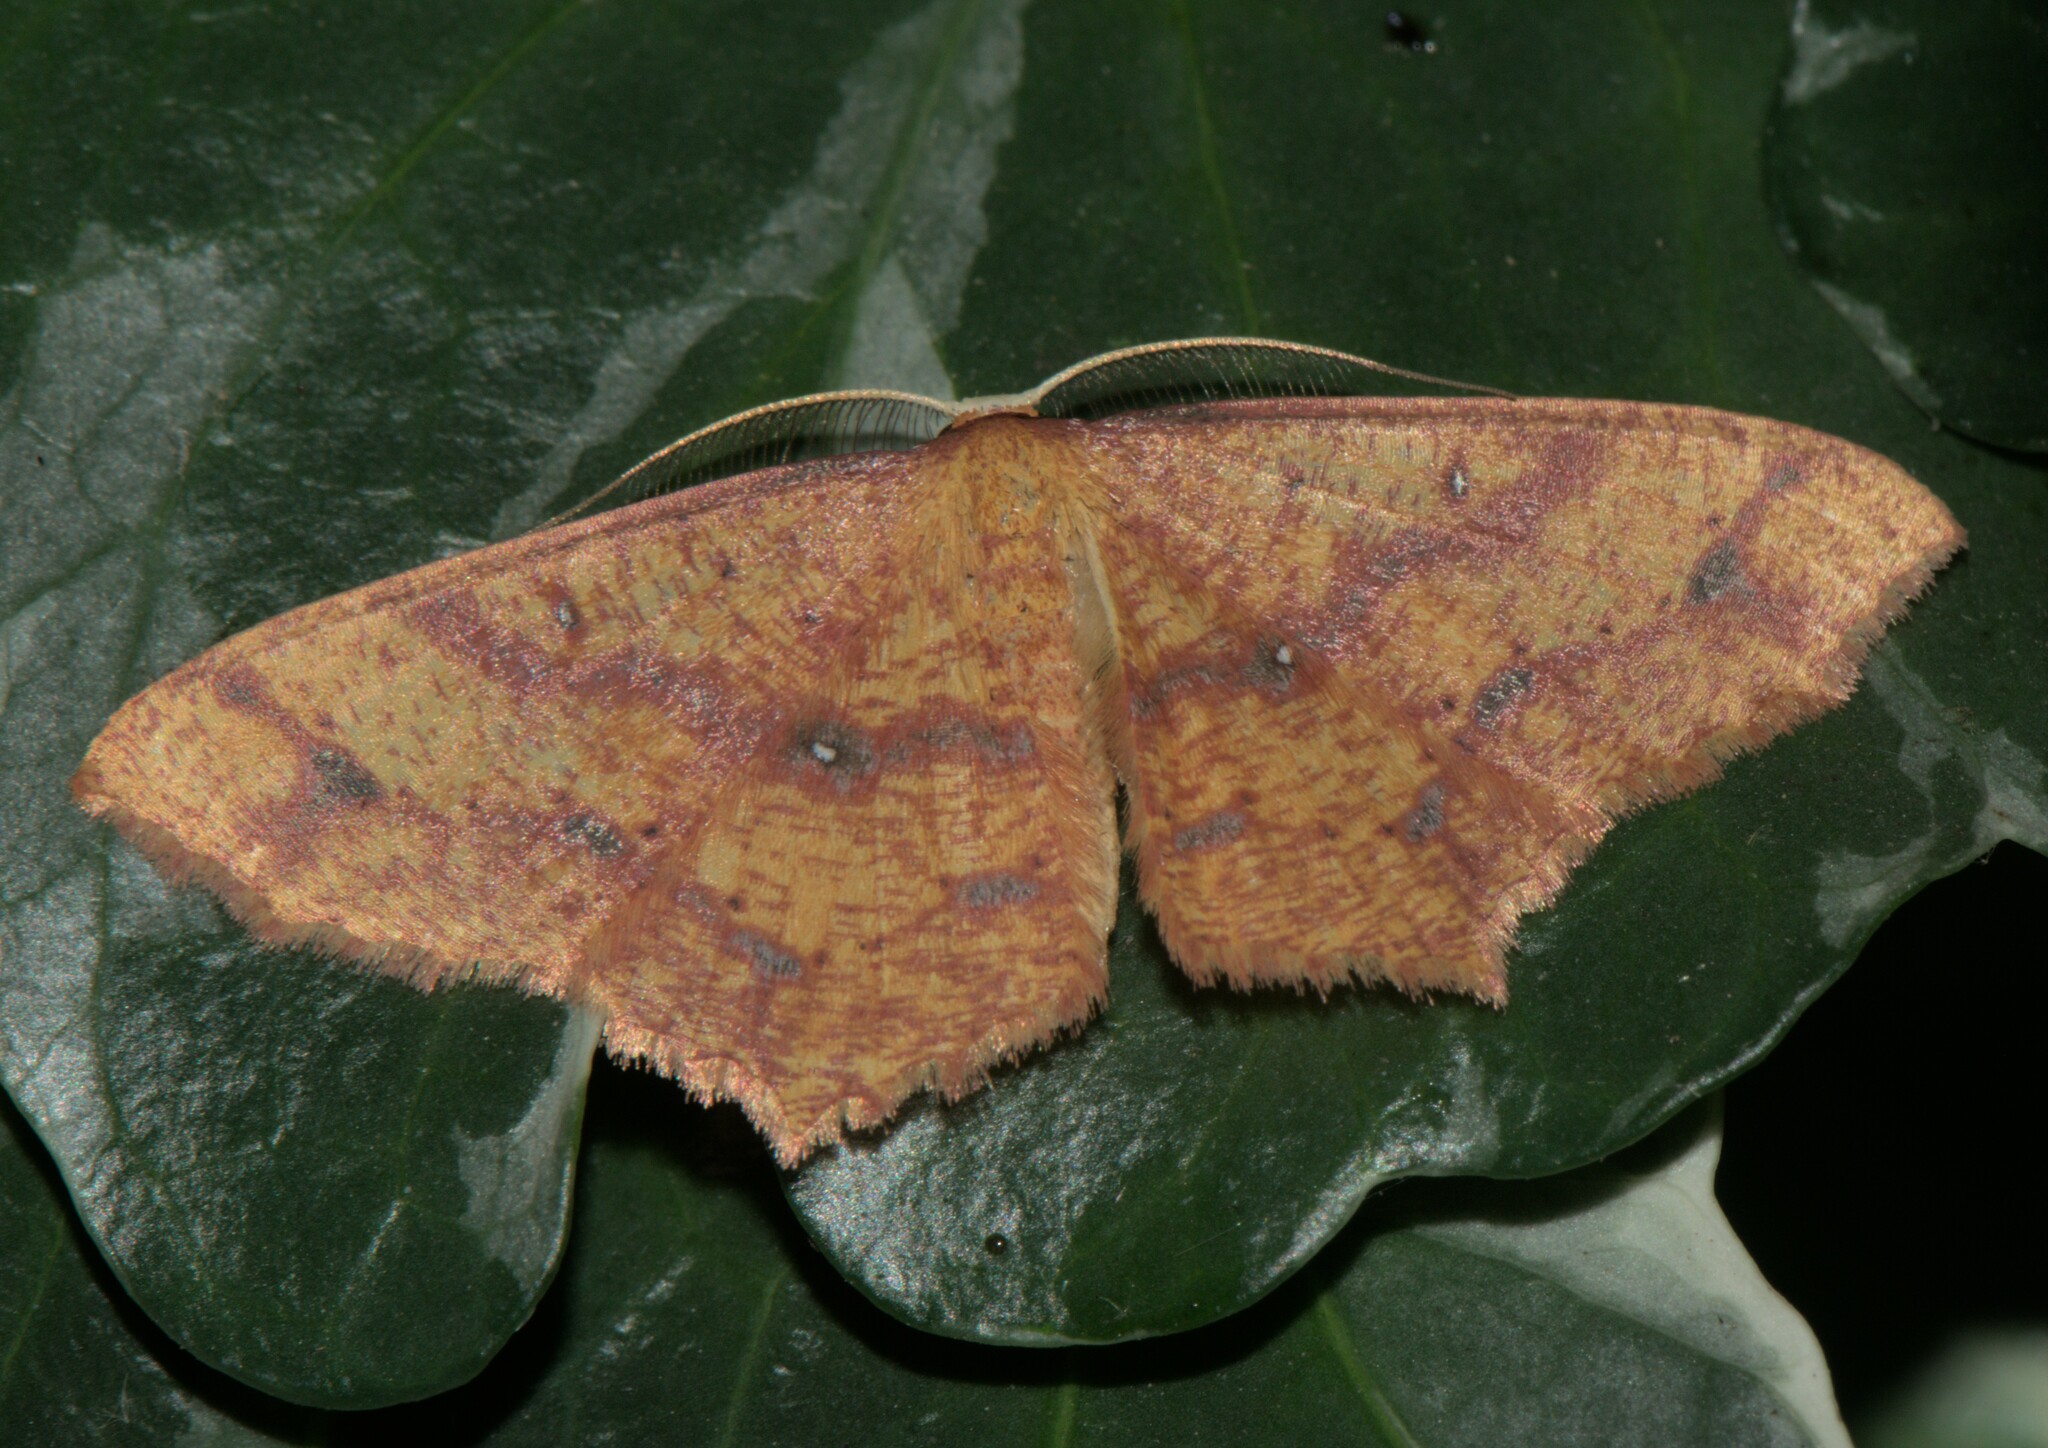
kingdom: Animalia
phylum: Arthropoda
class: Insecta
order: Lepidoptera
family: Geometridae
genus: Synegiodes
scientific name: Synegiodes hyriaria
